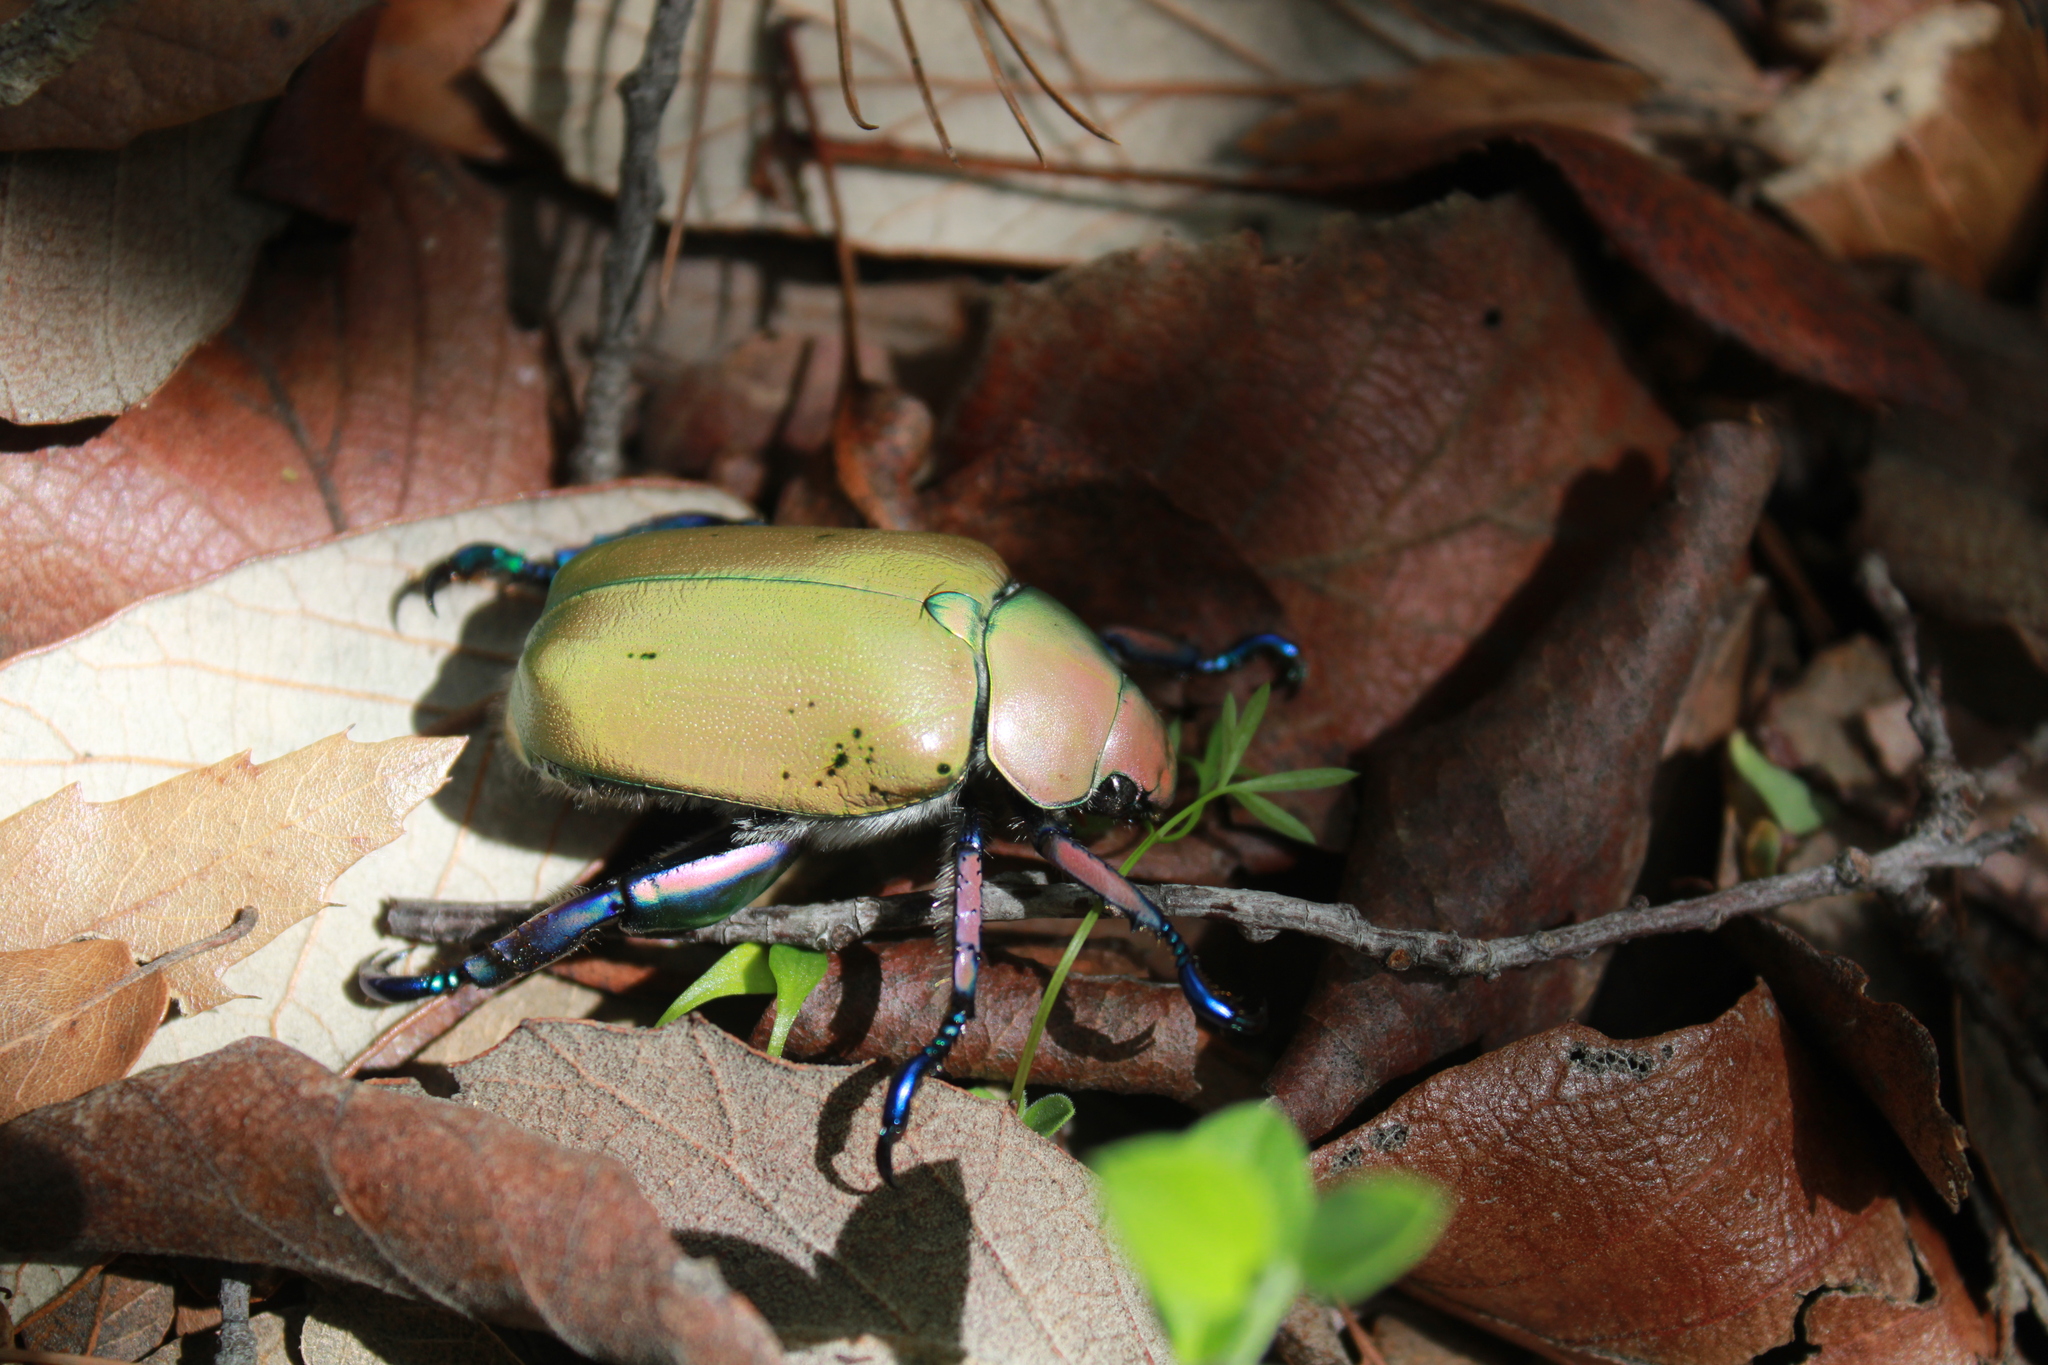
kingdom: Animalia
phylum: Arthropoda
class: Insecta
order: Coleoptera
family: Scarabaeidae
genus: Chrysina
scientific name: Chrysina erubescens
